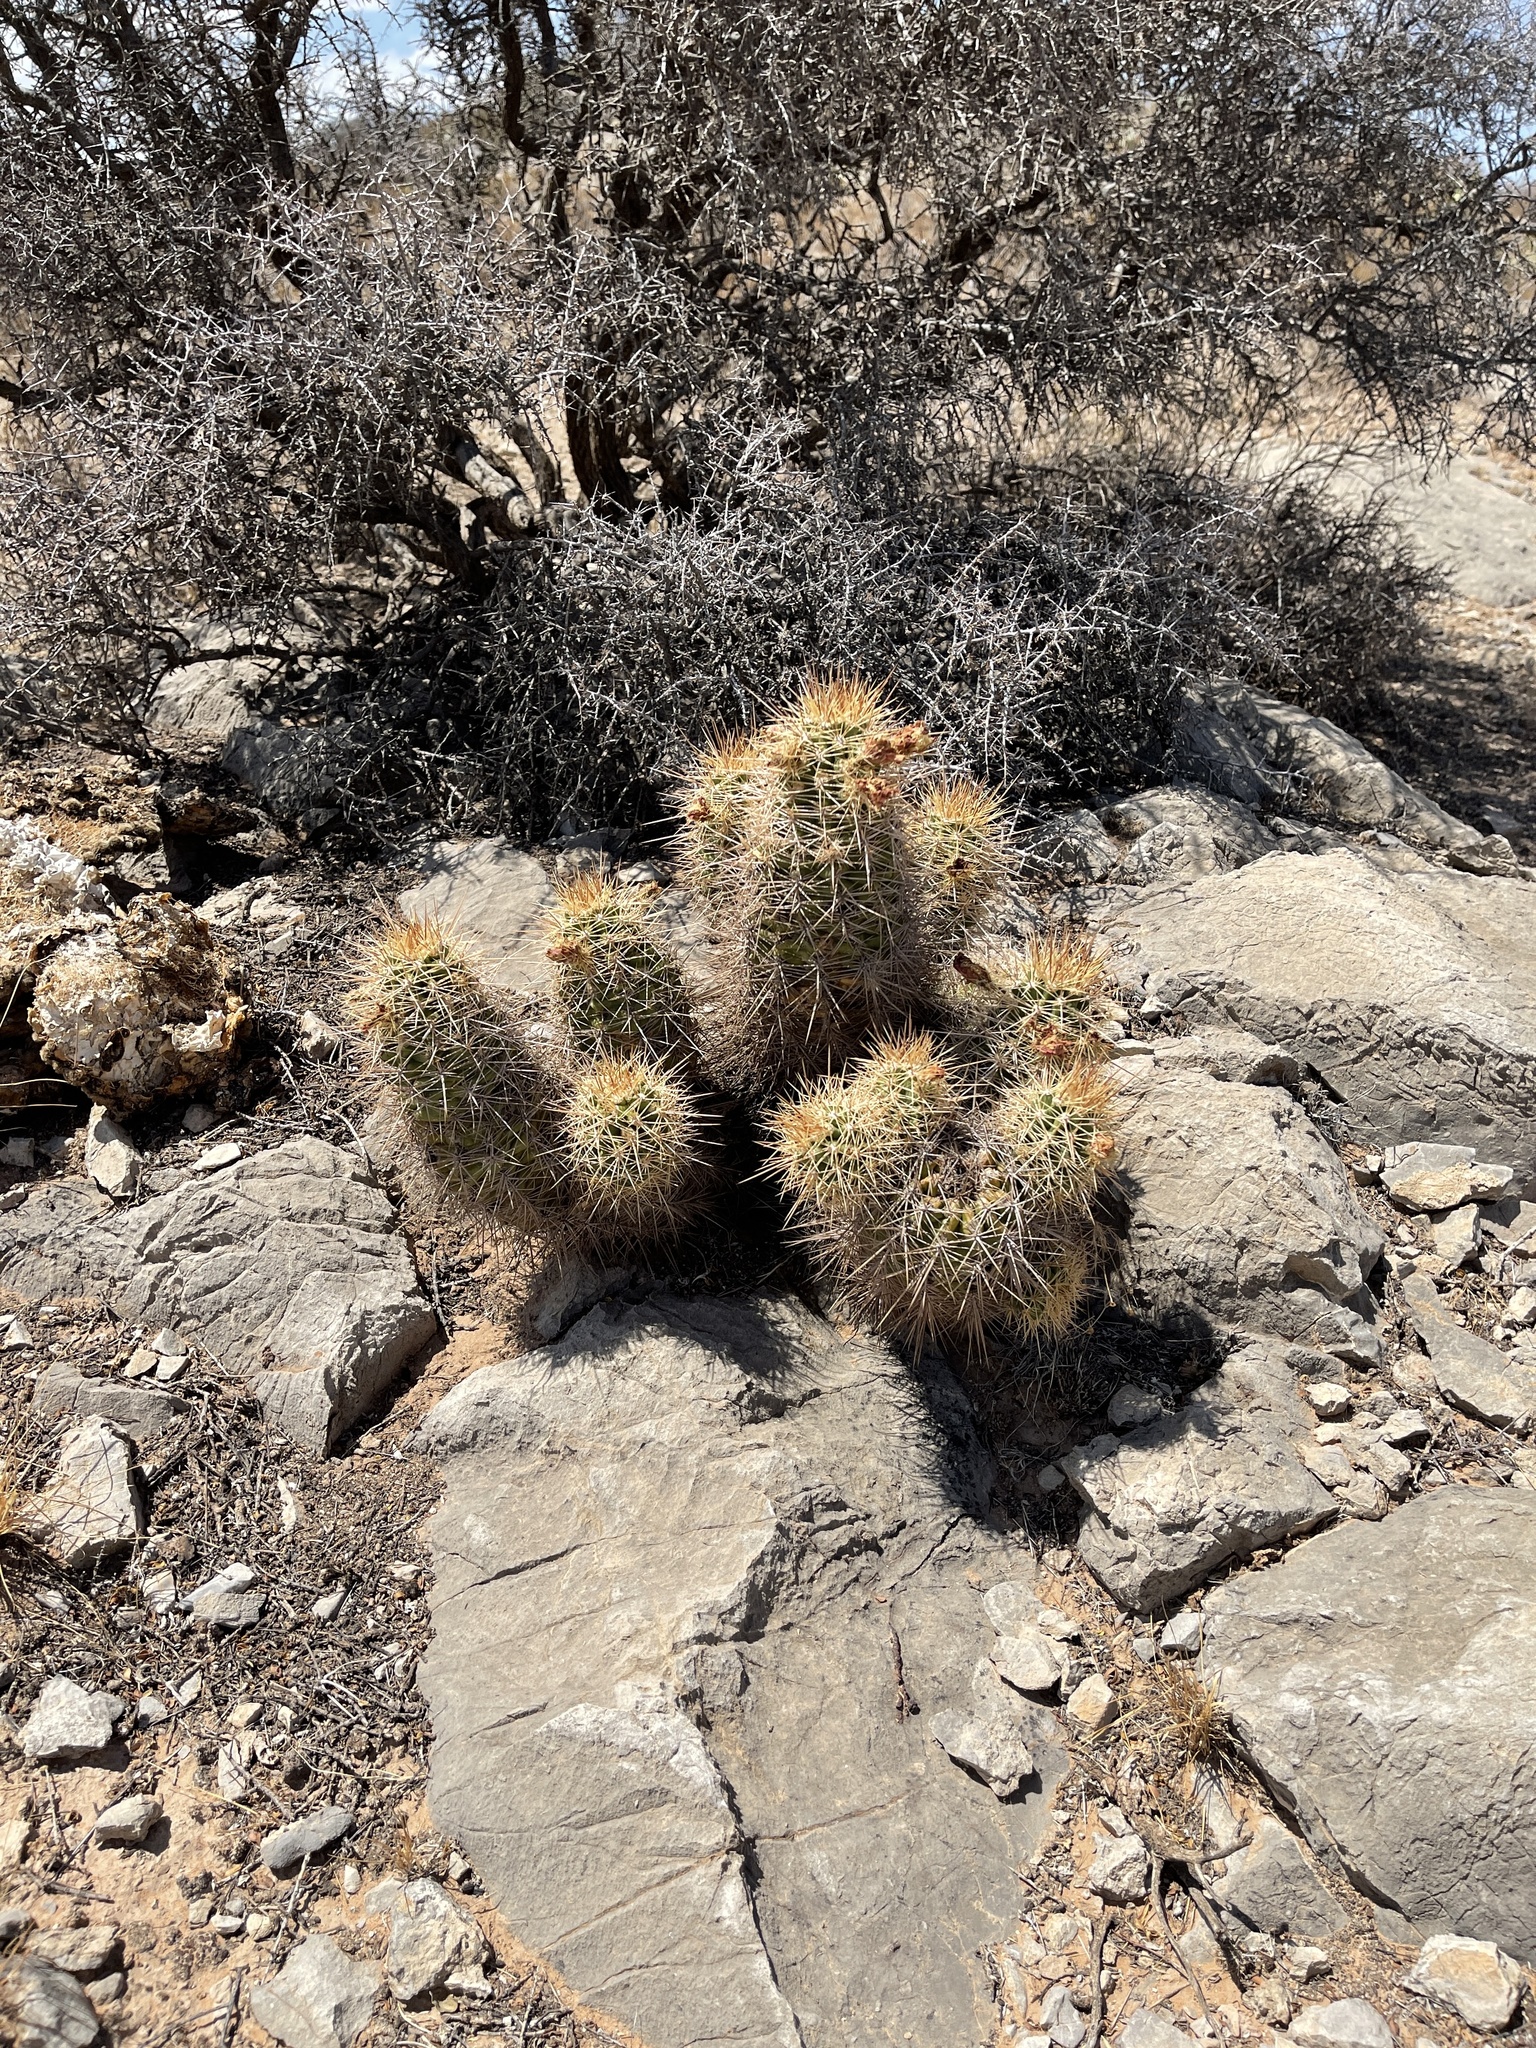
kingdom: Plantae
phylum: Tracheophyta
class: Magnoliopsida
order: Caryophyllales
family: Cactaceae
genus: Echinocereus
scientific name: Echinocereus coccineus
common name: Scarlet hedgehog cactus
